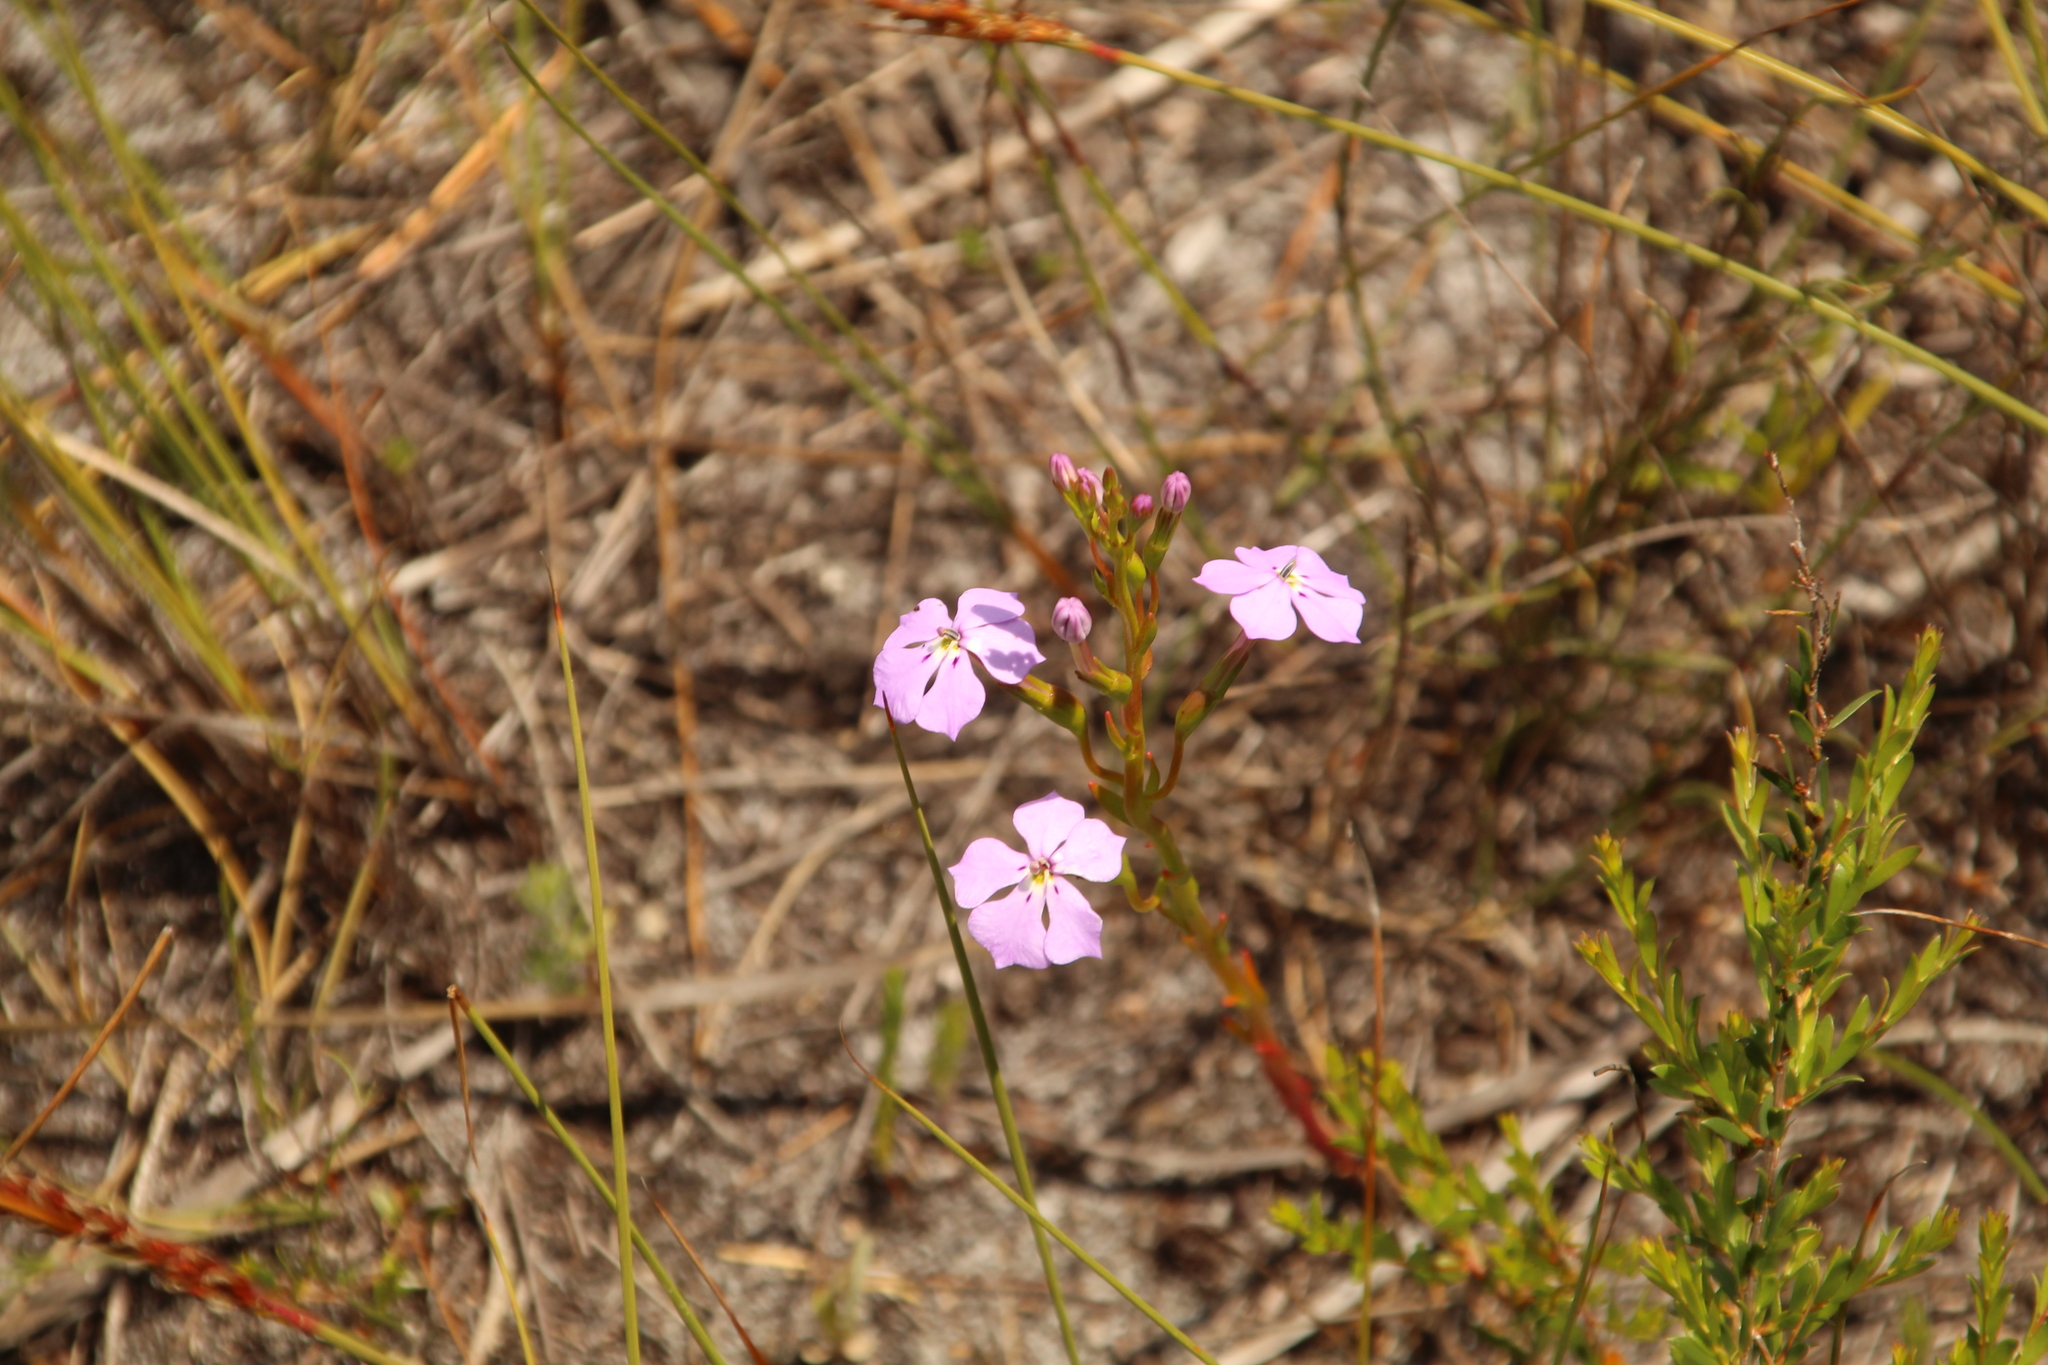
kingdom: Plantae
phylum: Tracheophyta
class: Magnoliopsida
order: Asterales
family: Campanulaceae
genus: Isotoma
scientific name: Isotoma hypocrateriformis
